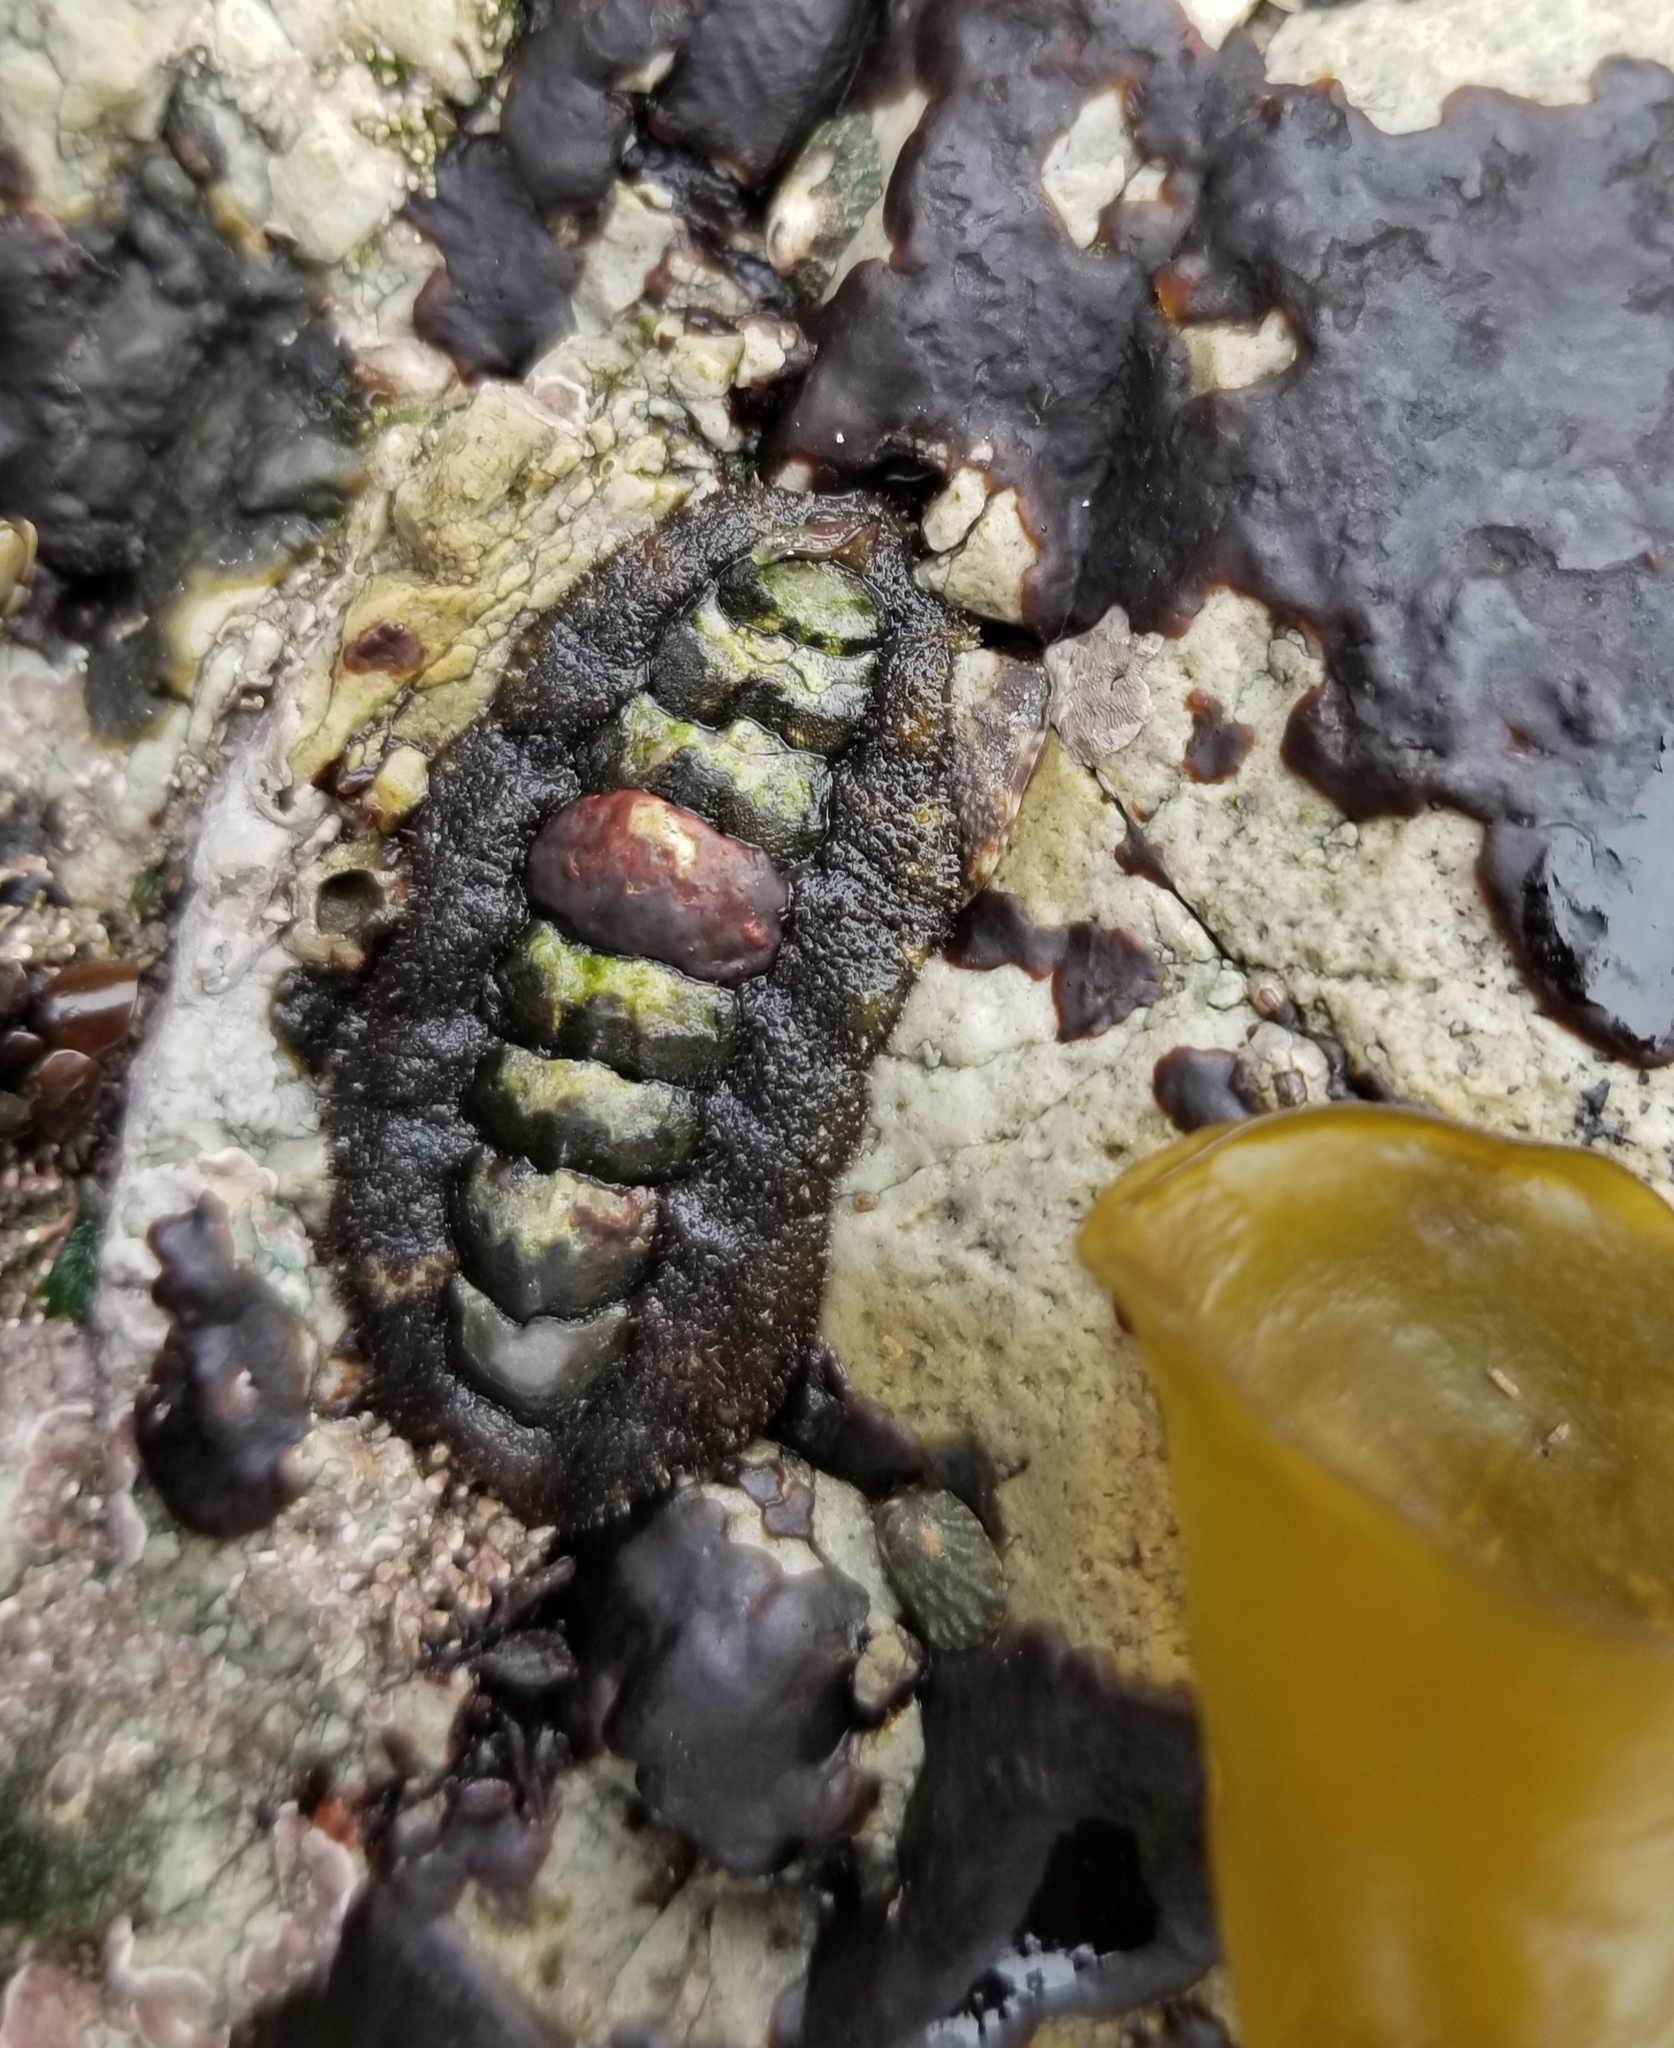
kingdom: Animalia
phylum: Mollusca
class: Polyplacophora
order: Chitonida
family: Tonicellidae
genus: Nuttallina
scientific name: Nuttallina californica
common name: California nuttall chiton
